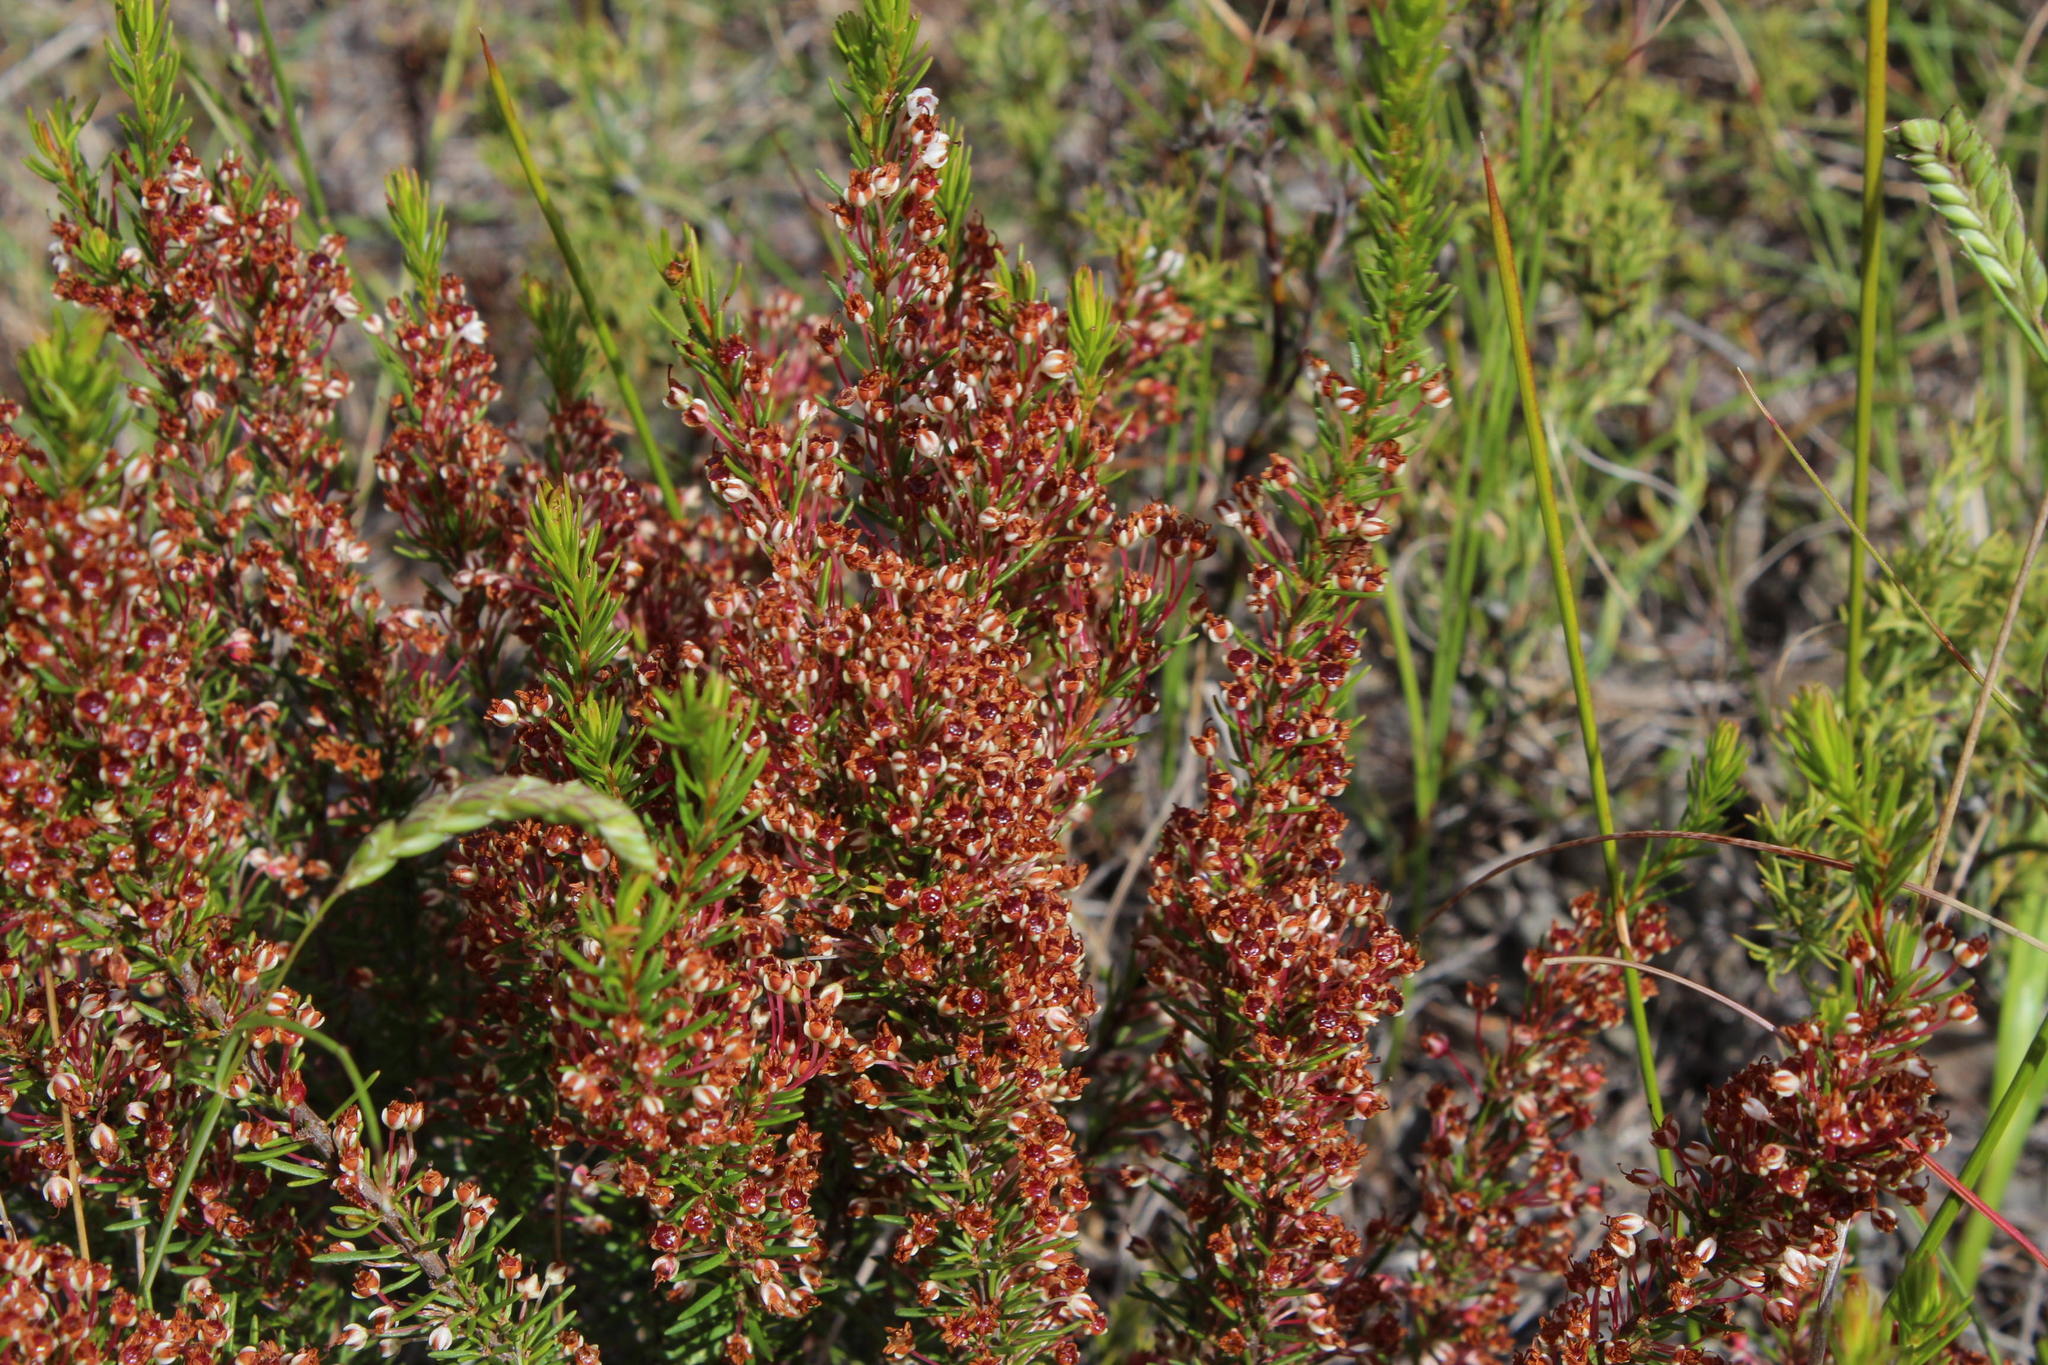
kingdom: Plantae
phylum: Tracheophyta
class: Magnoliopsida
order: Ericales
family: Ericaceae
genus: Erica
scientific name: Erica rubiginosa
